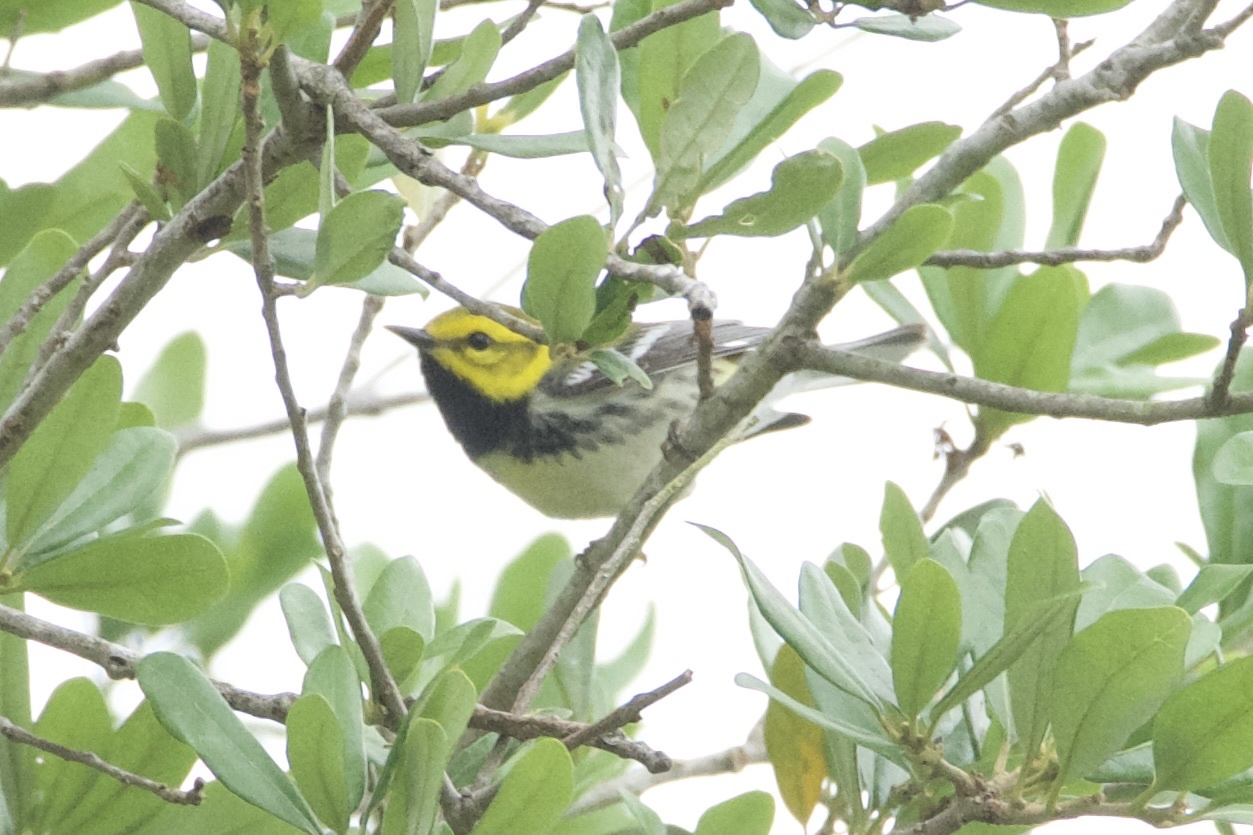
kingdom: Animalia
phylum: Chordata
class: Aves
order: Passeriformes
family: Parulidae
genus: Setophaga
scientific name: Setophaga virens
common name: Black-throated green warbler
